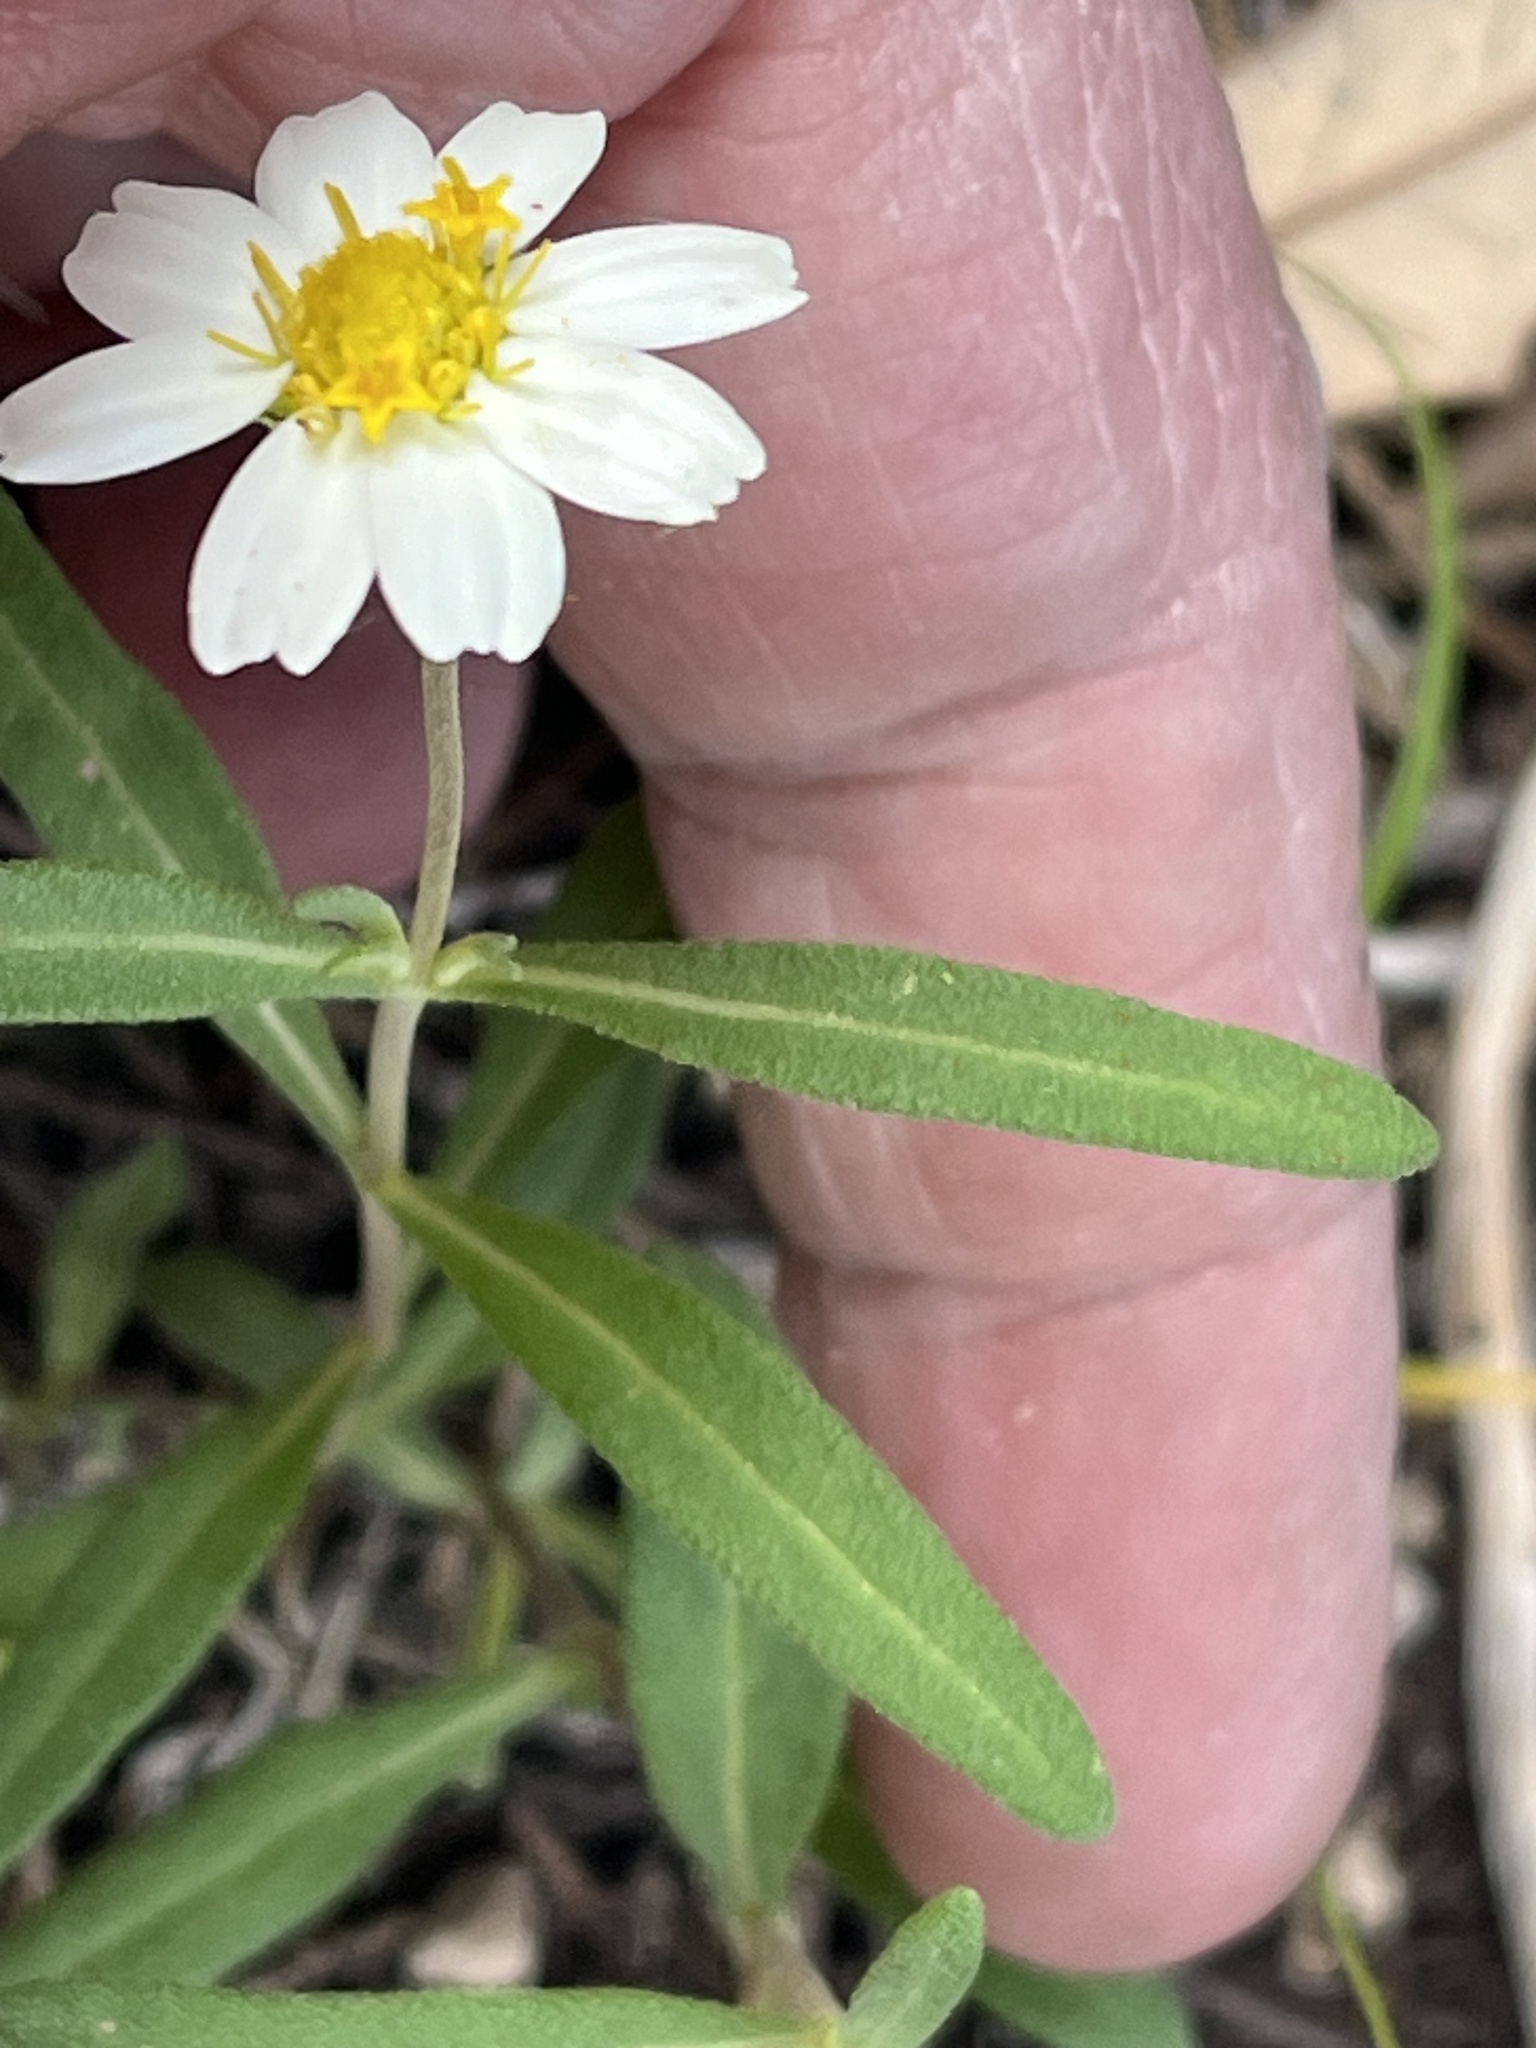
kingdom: Plantae
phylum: Tracheophyta
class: Magnoliopsida
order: Asterales
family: Asteraceae
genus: Melampodium
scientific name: Melampodium leucanthum
